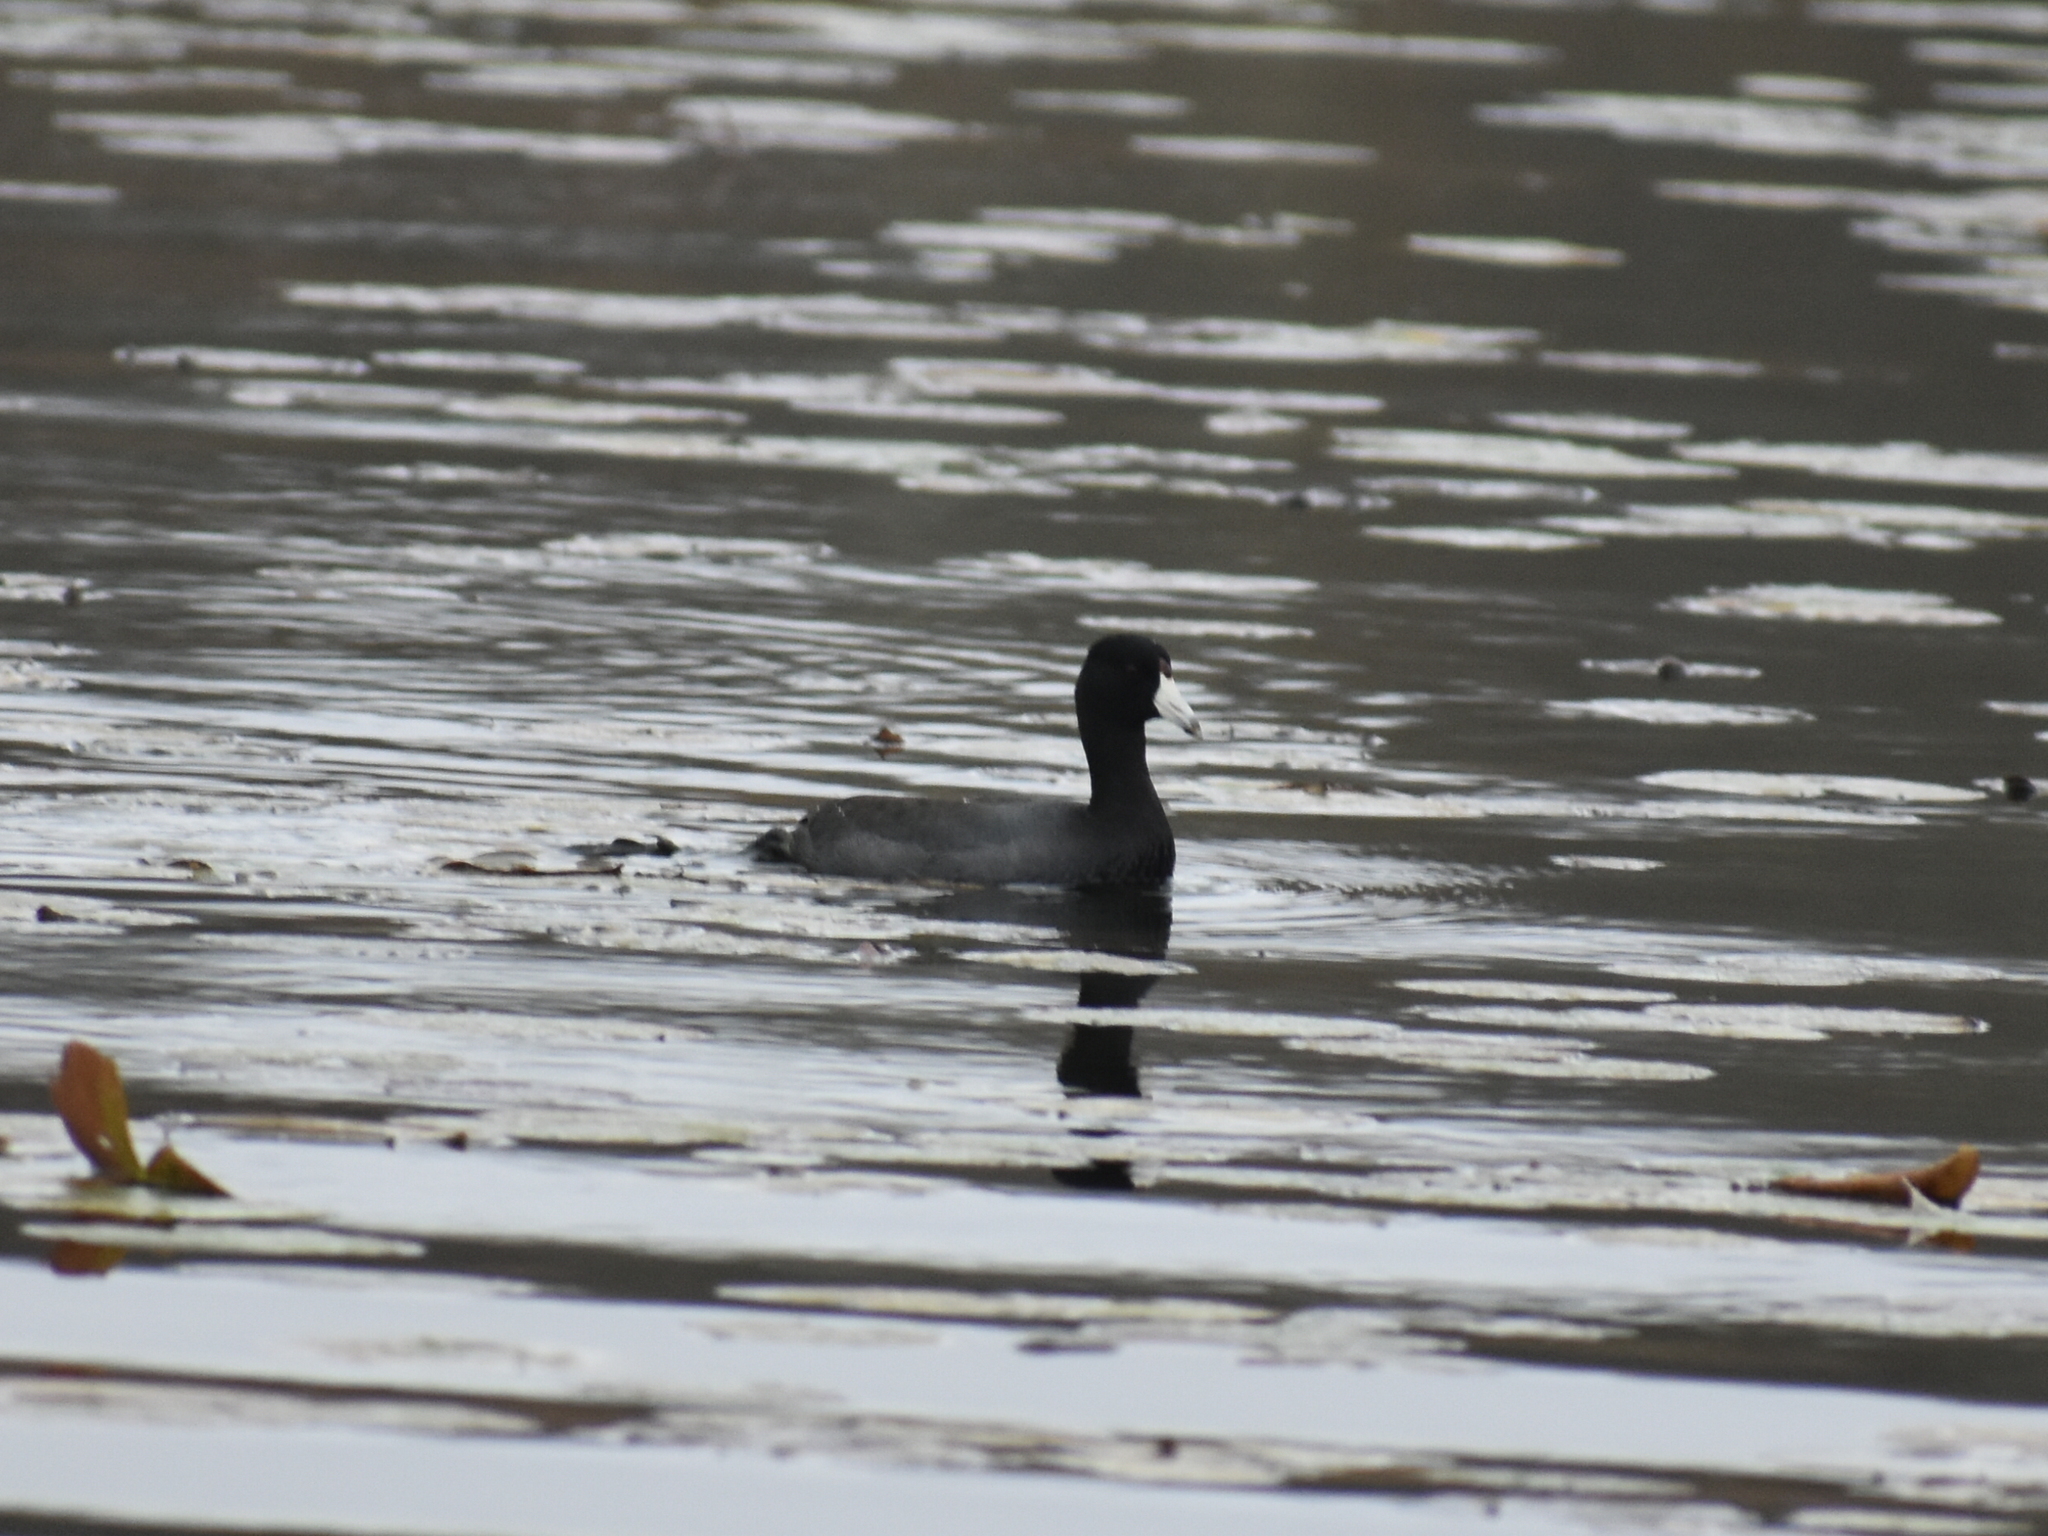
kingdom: Animalia
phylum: Chordata
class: Aves
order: Gruiformes
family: Rallidae
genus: Fulica
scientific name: Fulica americana
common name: American coot
